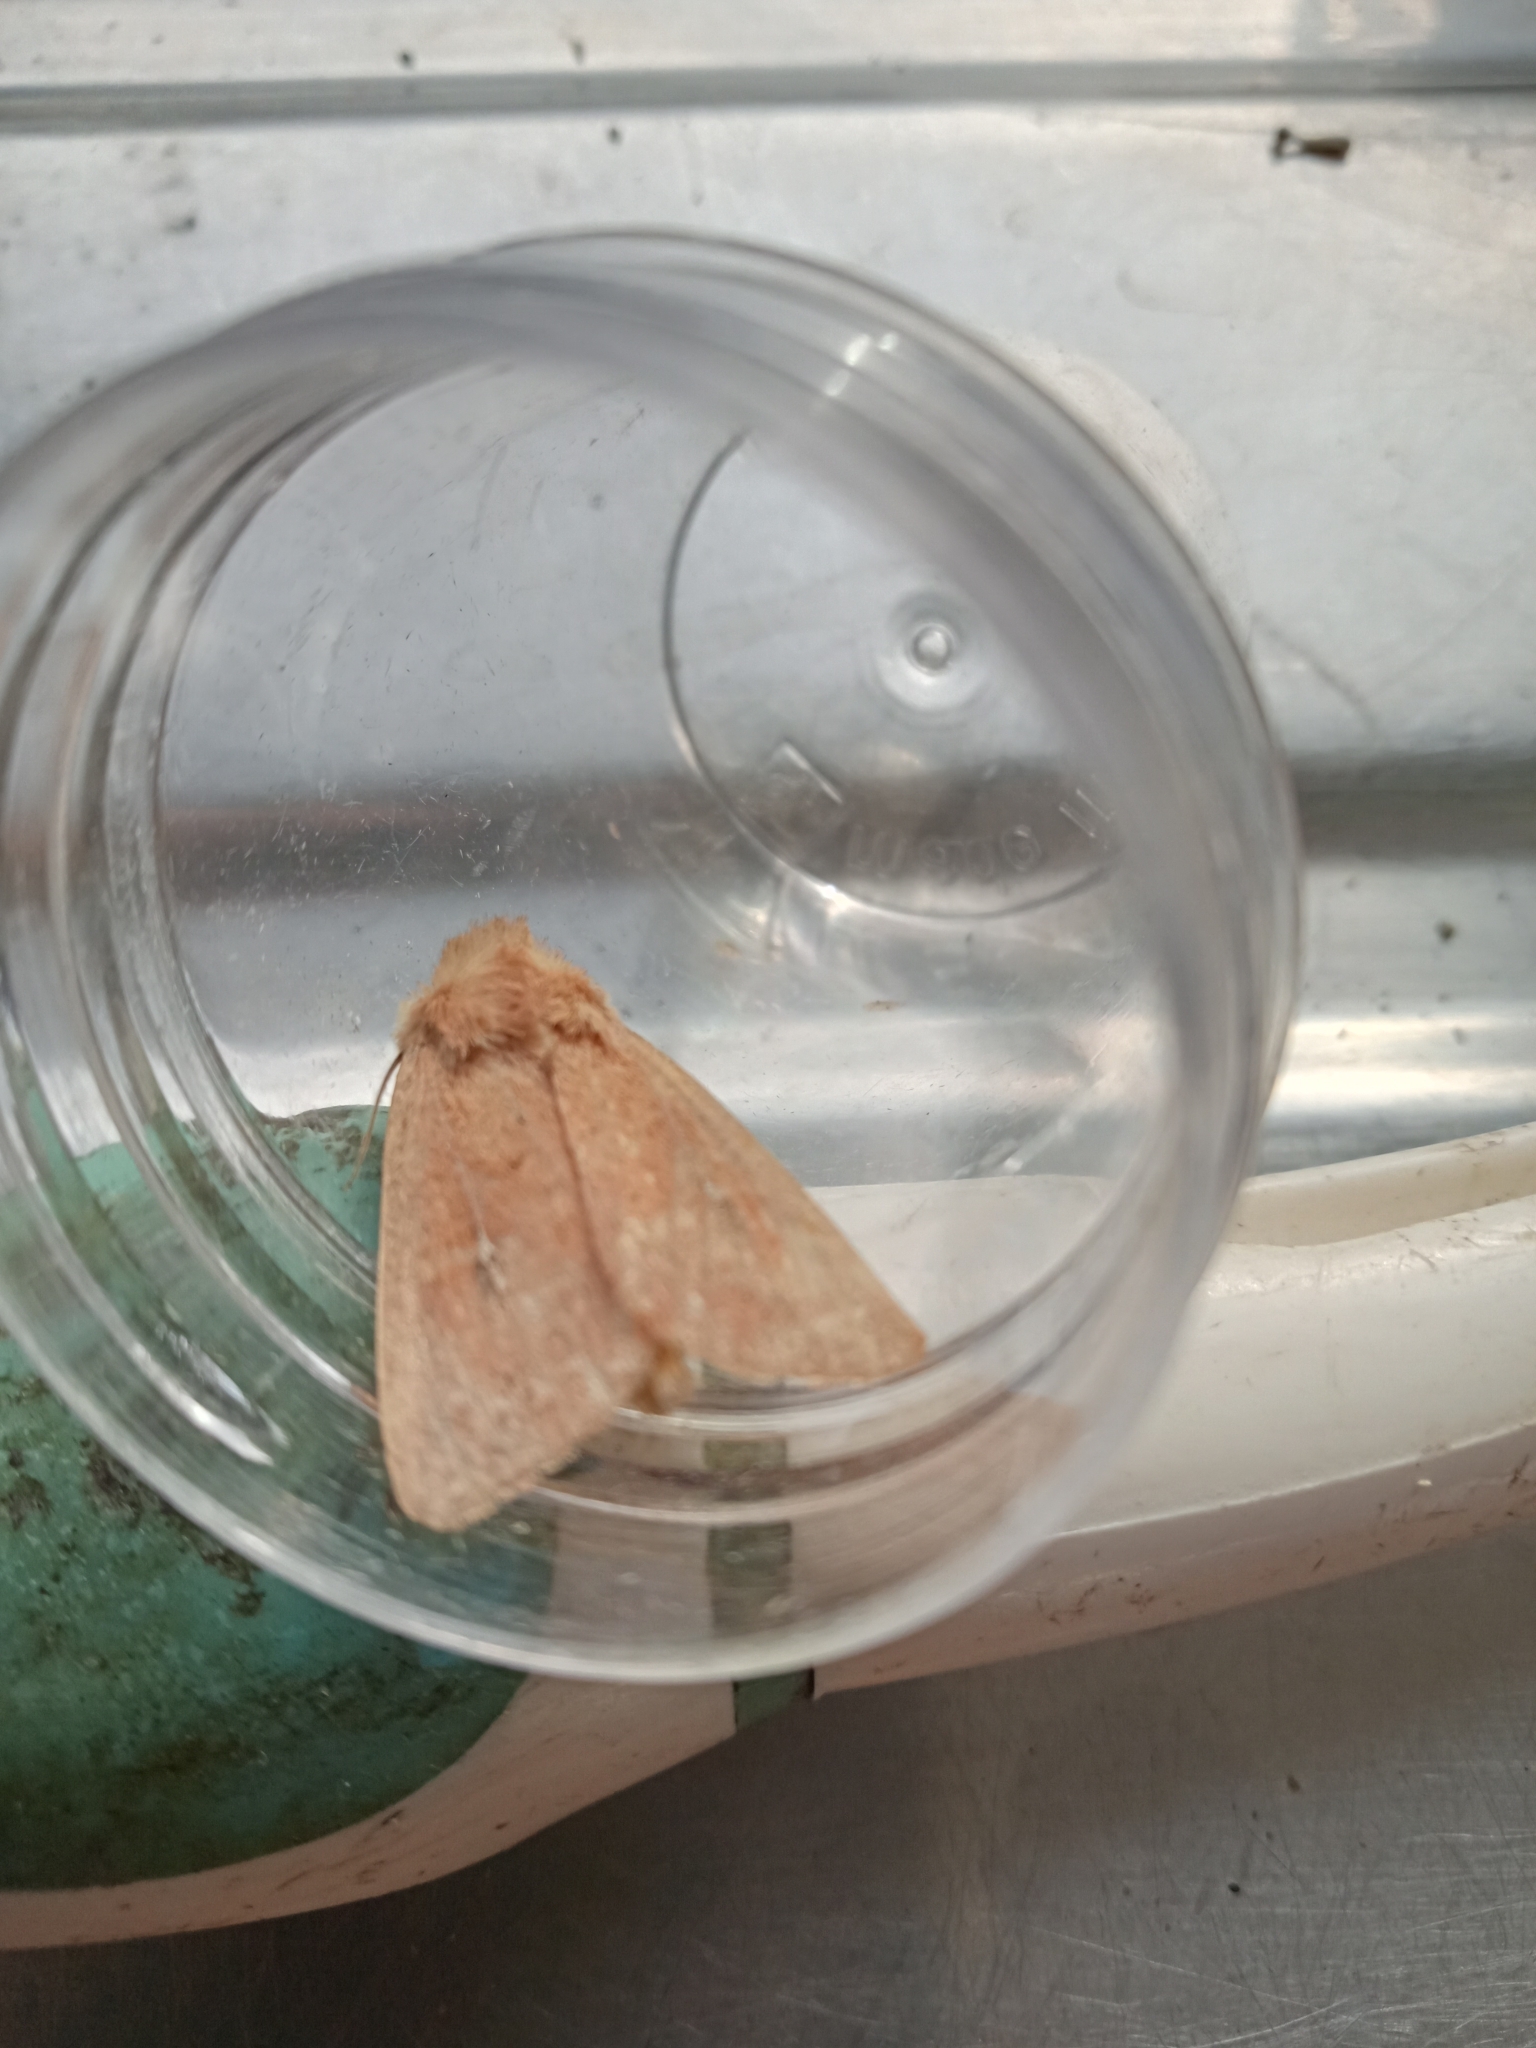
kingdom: Animalia
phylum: Arthropoda
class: Insecta
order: Lepidoptera
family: Noctuidae
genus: Mythimna
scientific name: Mythimna ferrago
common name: Clay
